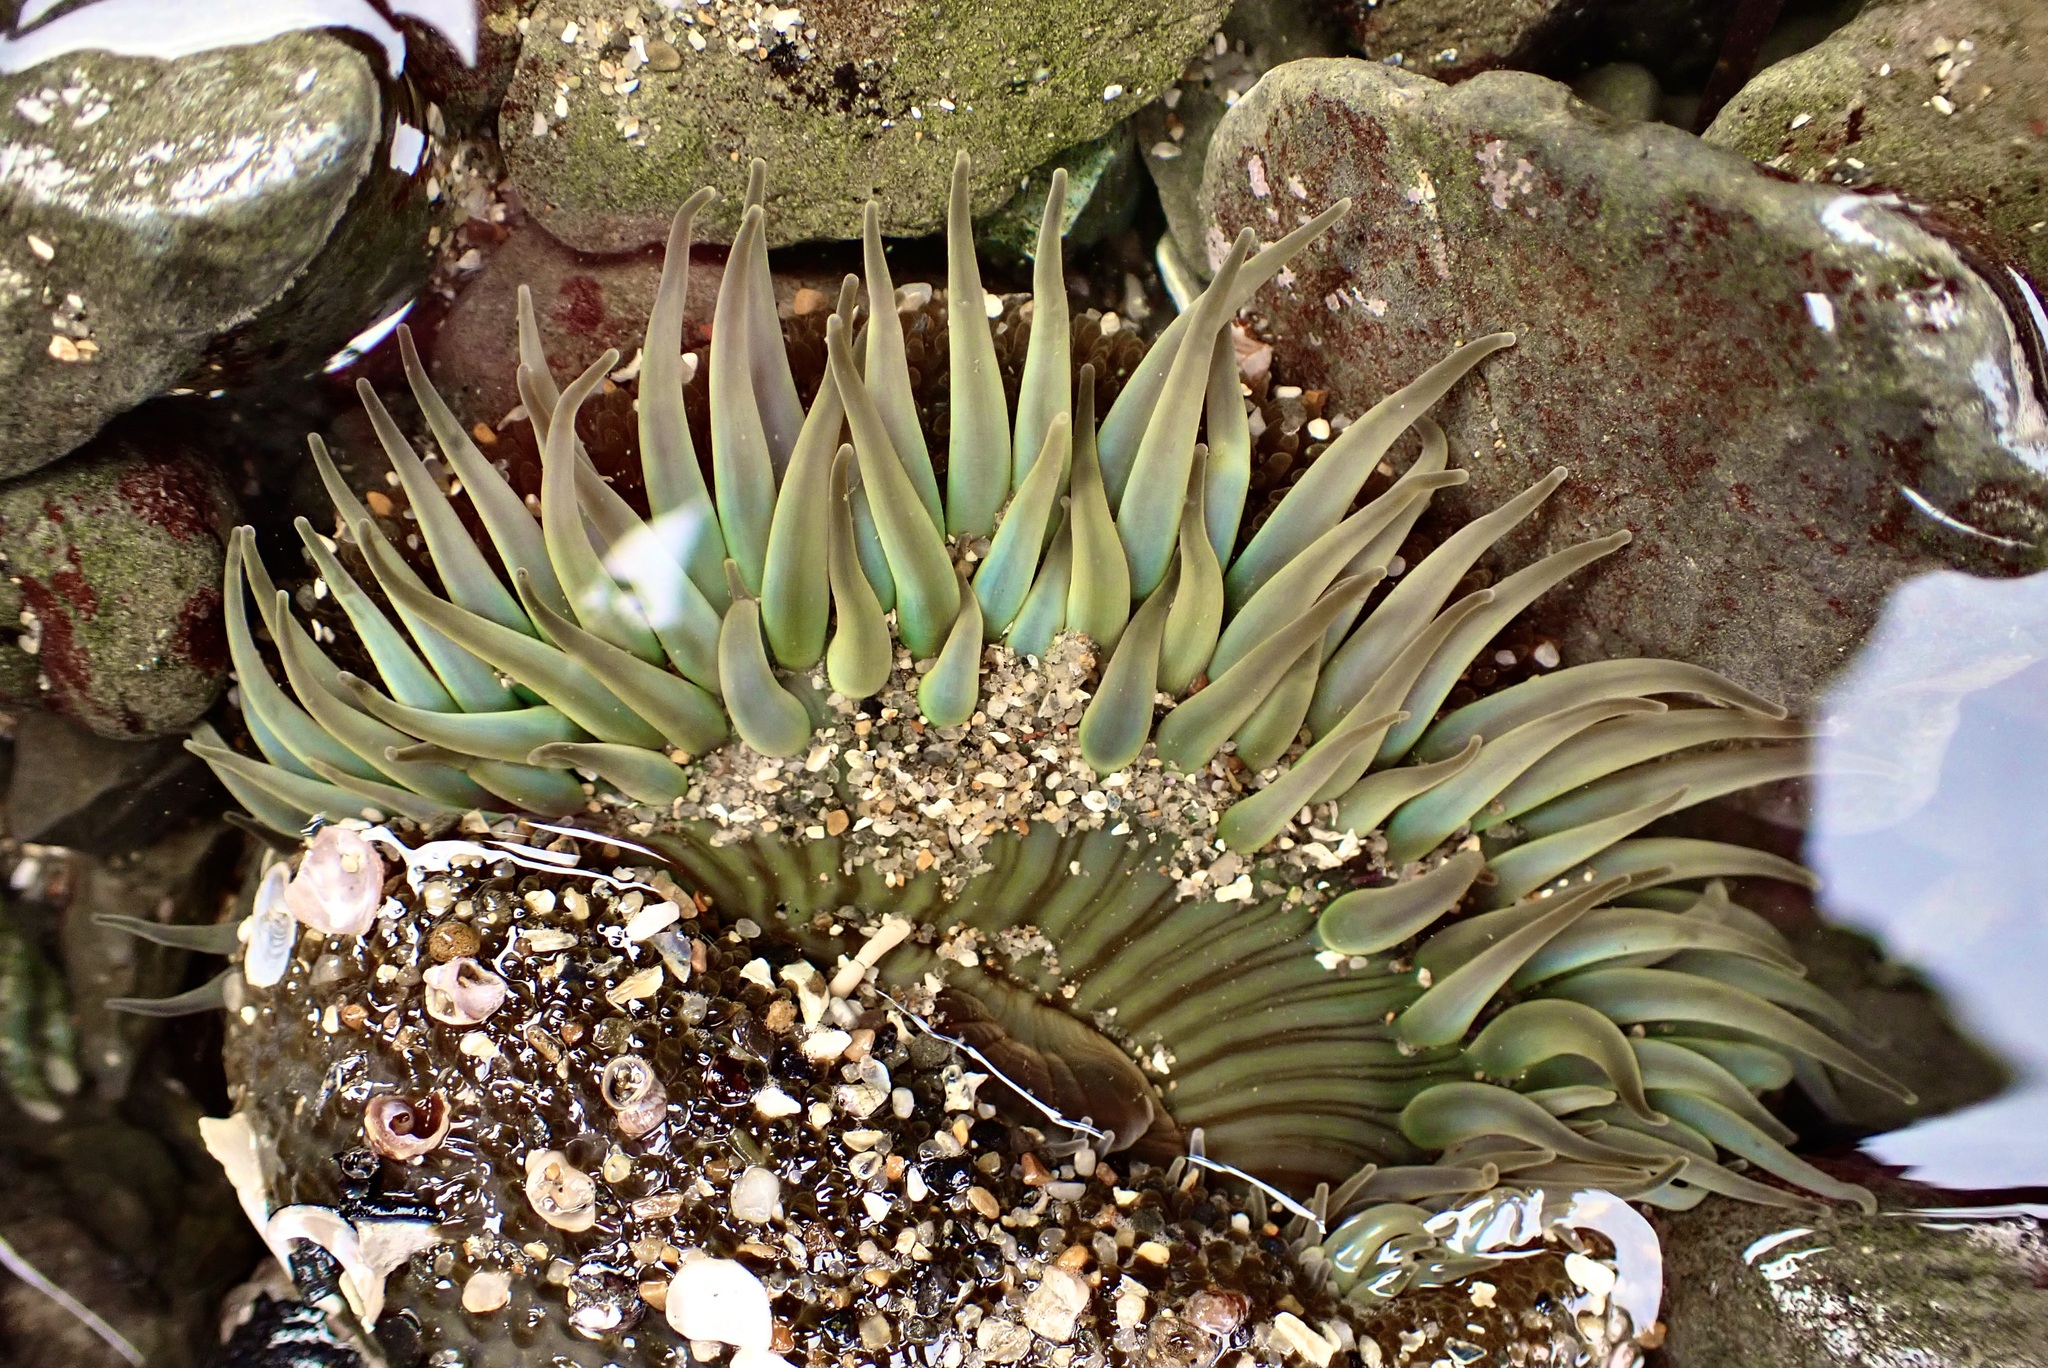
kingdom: Animalia
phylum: Cnidaria
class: Anthozoa
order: Actiniaria
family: Actiniidae
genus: Anthopleura
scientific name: Anthopleura sola
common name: Sun anemone
